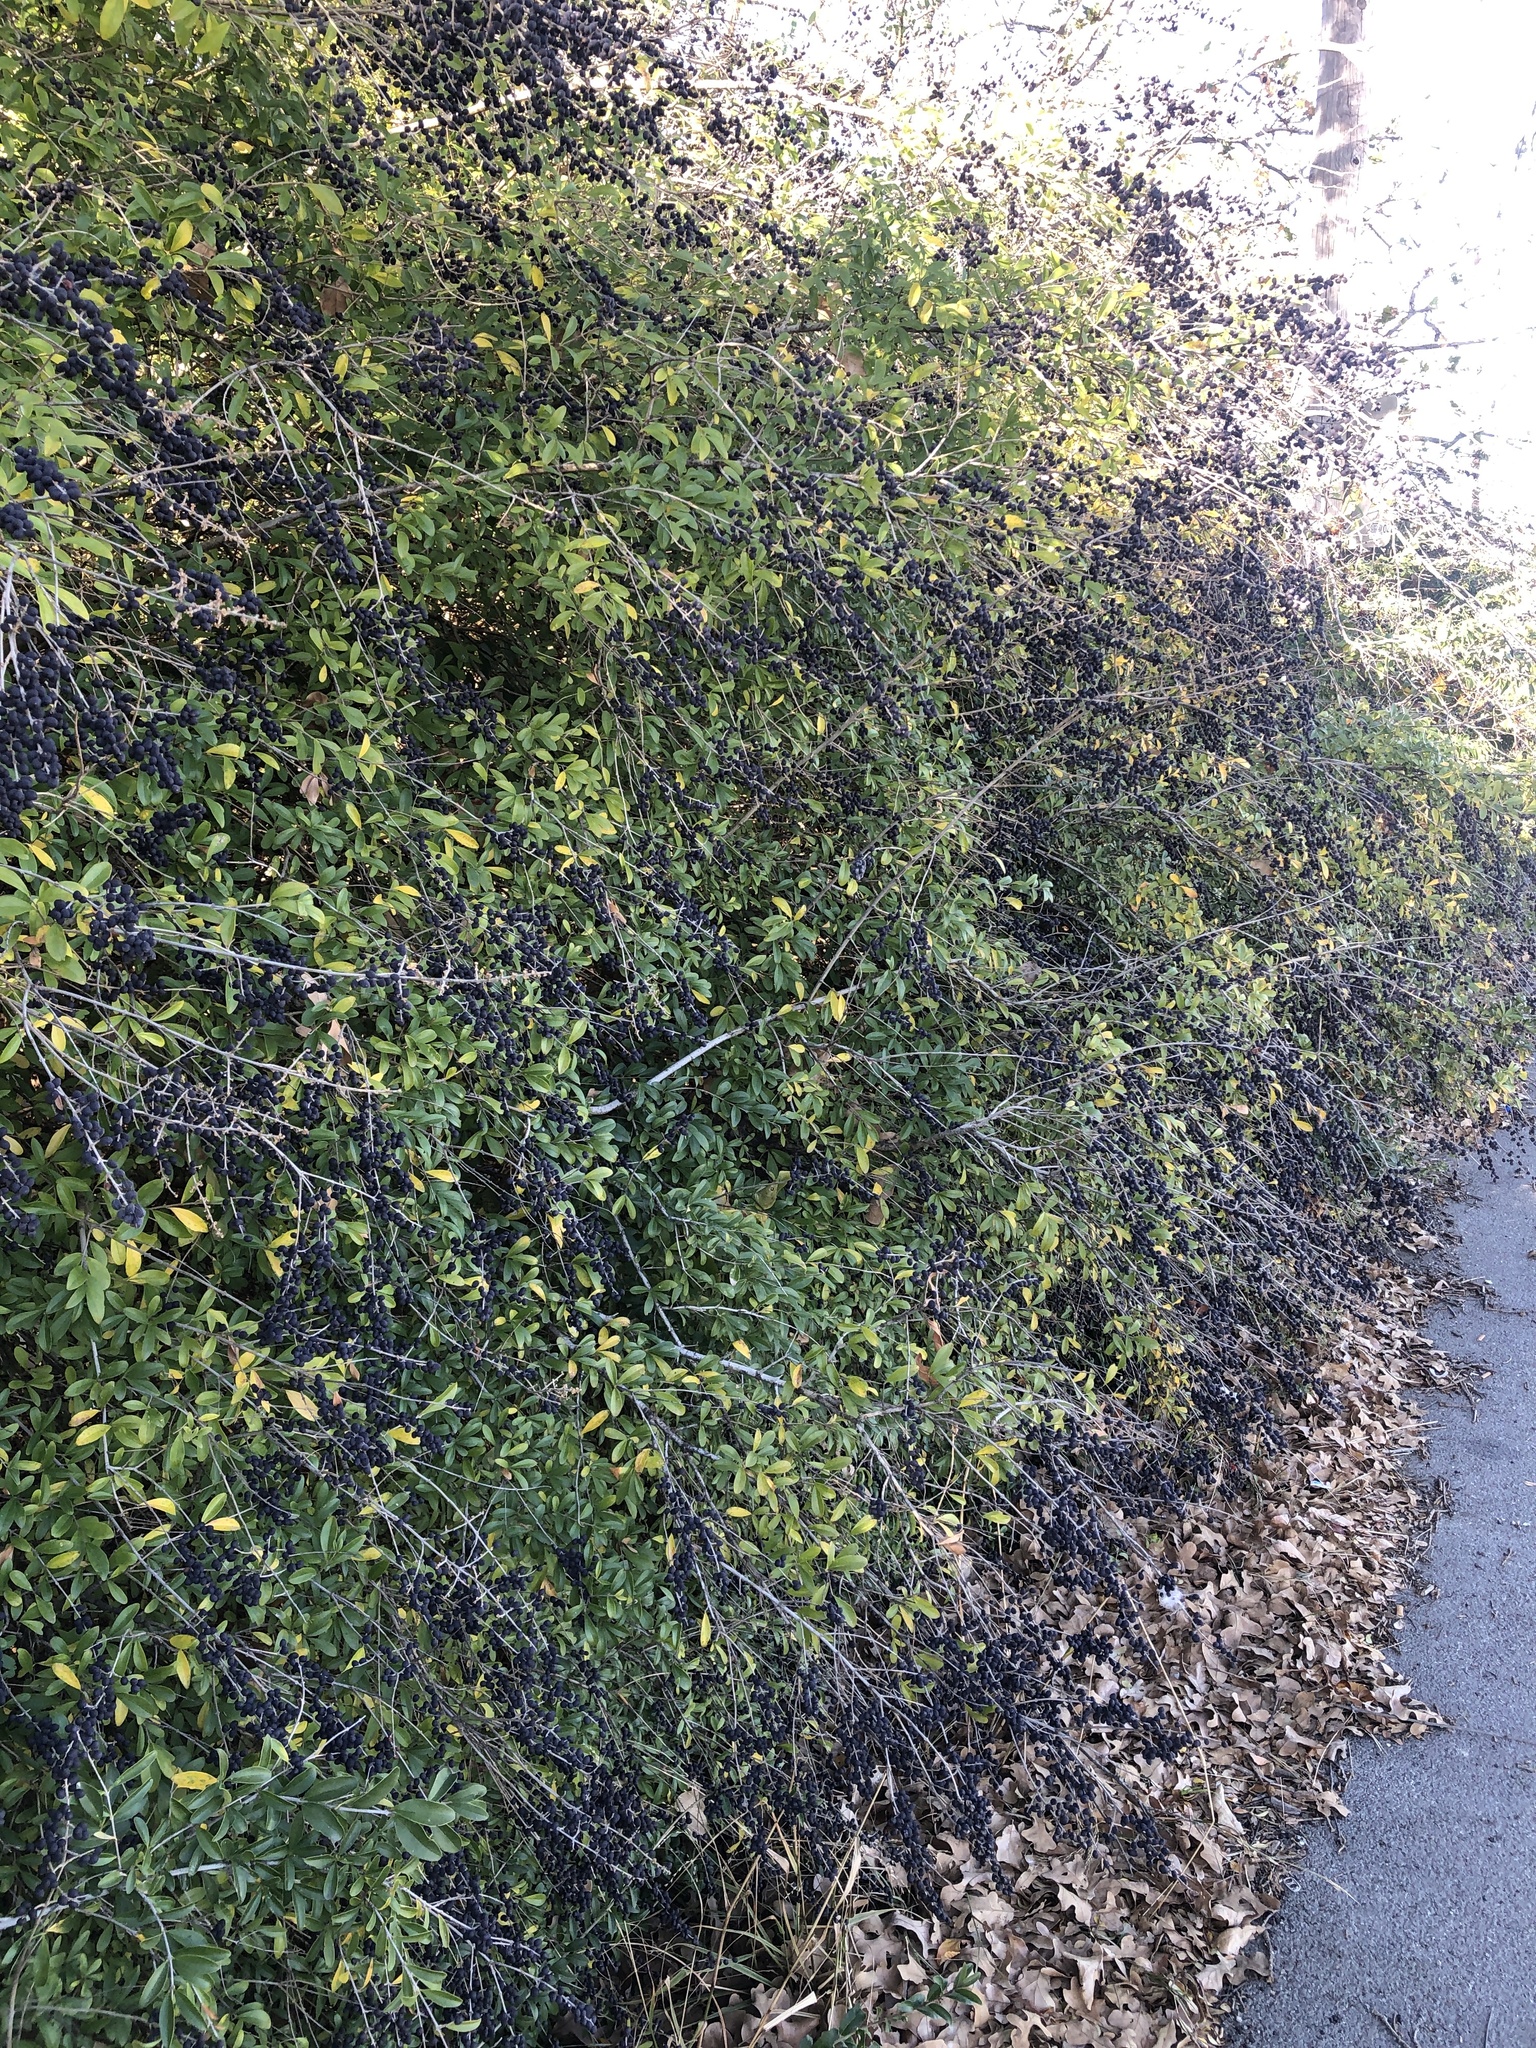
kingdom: Plantae
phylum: Tracheophyta
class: Magnoliopsida
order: Lamiales
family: Oleaceae
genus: Ligustrum
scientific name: Ligustrum quihoui
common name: Waxyleaf privet
